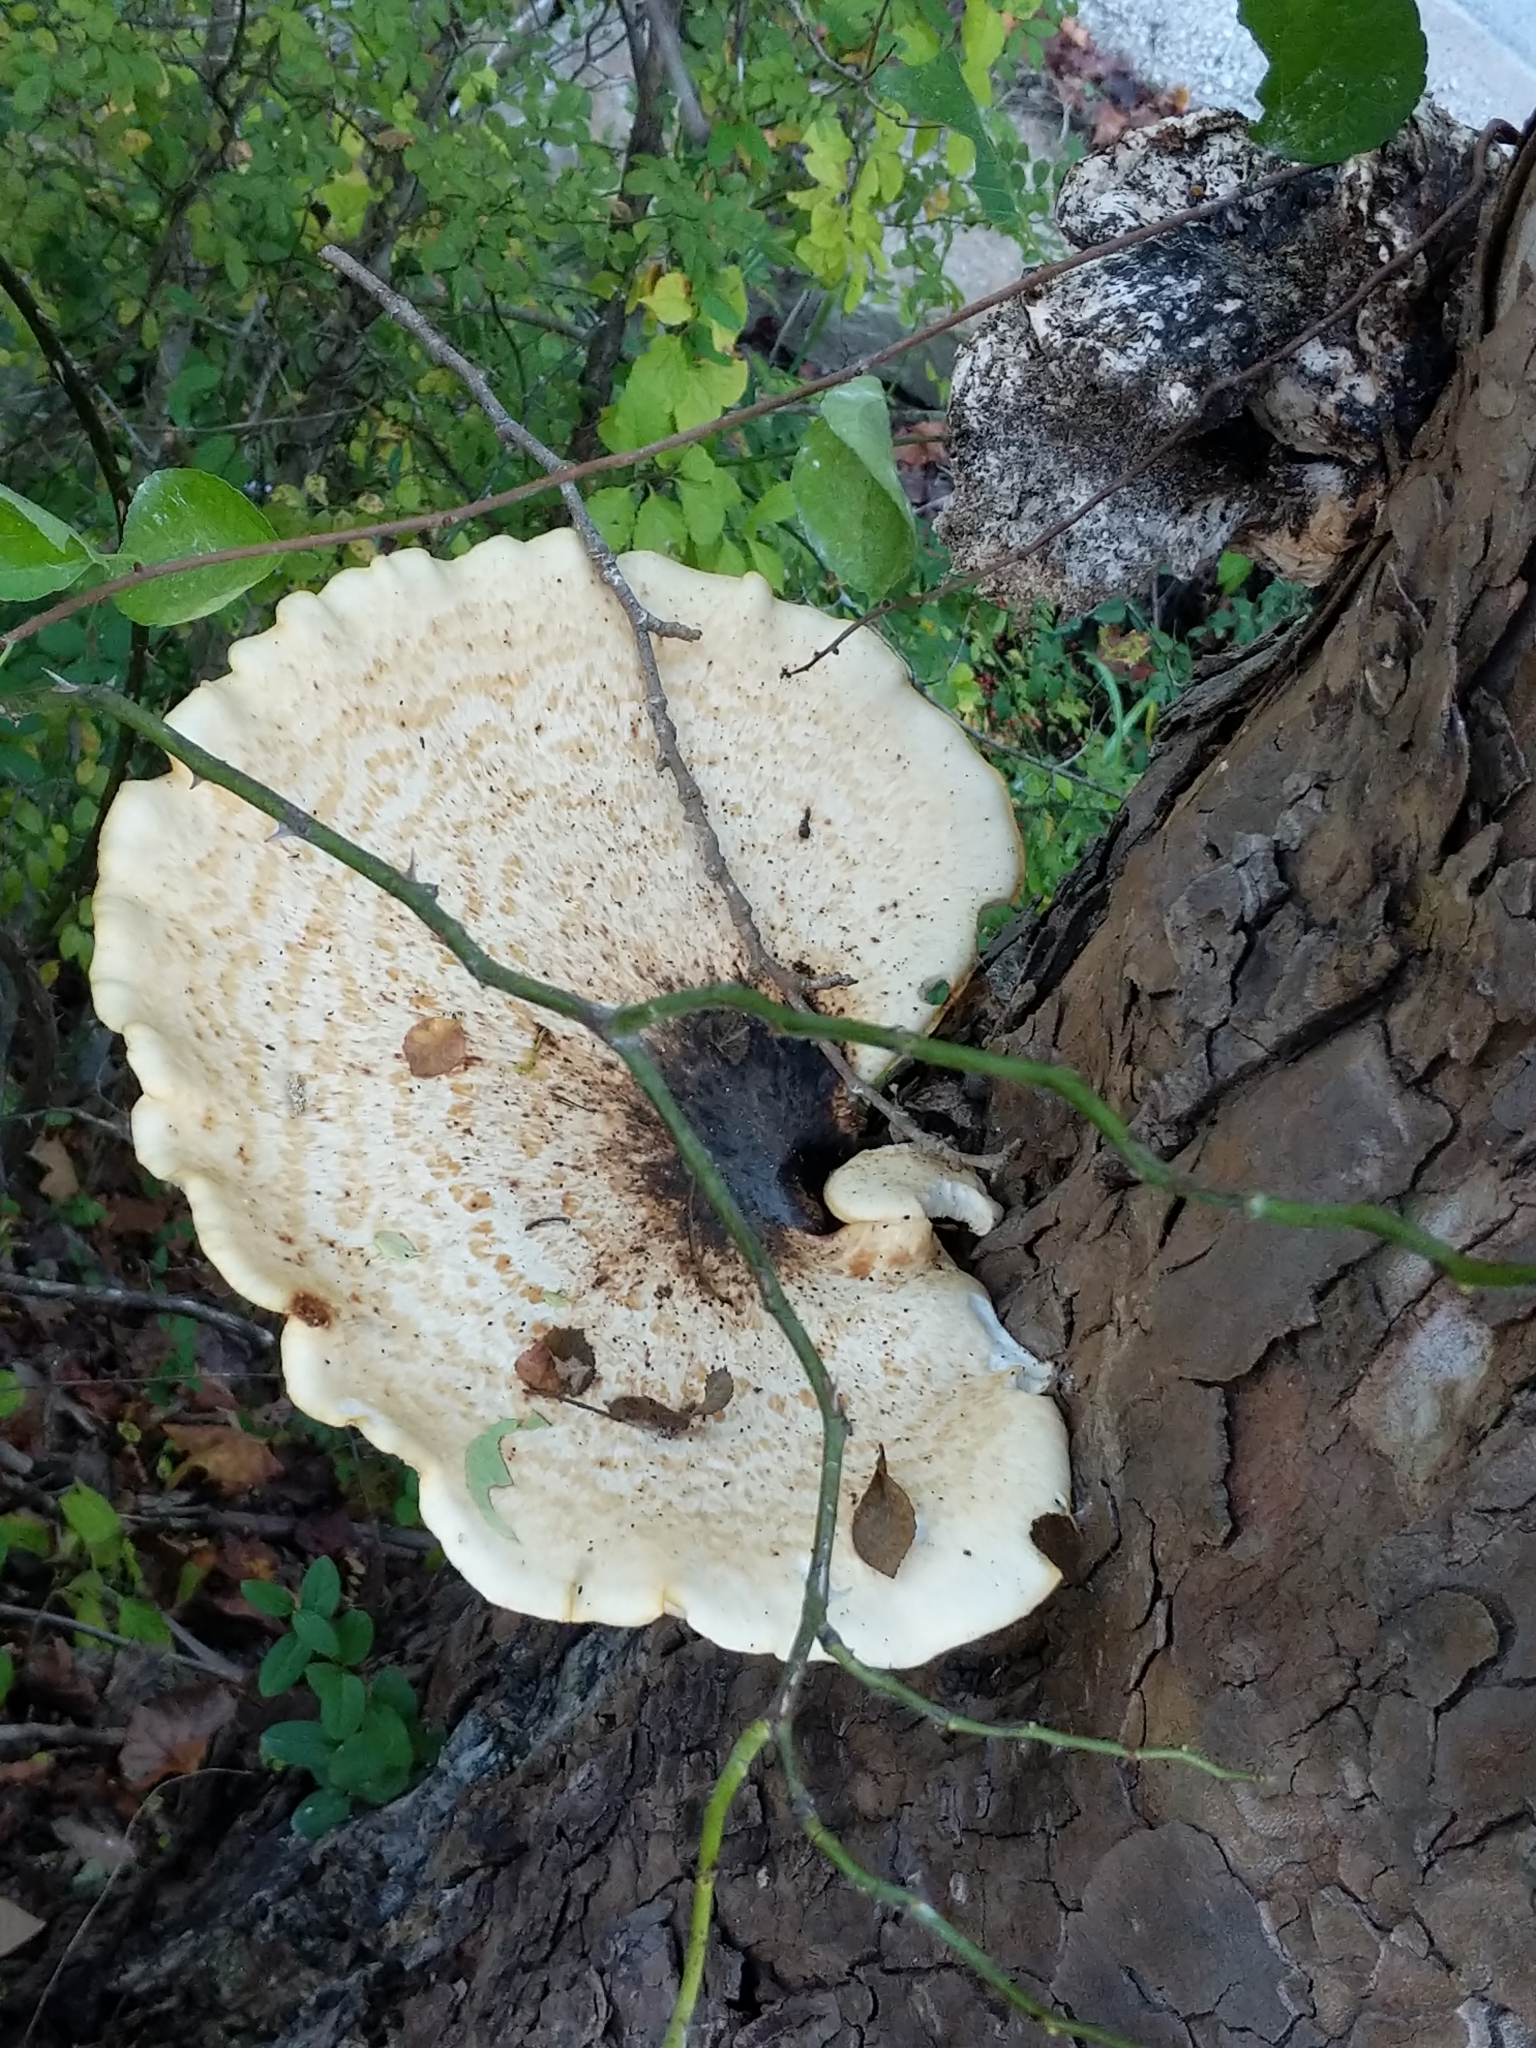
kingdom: Fungi
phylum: Basidiomycota
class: Agaricomycetes
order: Polyporales
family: Polyporaceae
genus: Cerioporus
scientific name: Cerioporus squamosus
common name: Dryad's saddle
